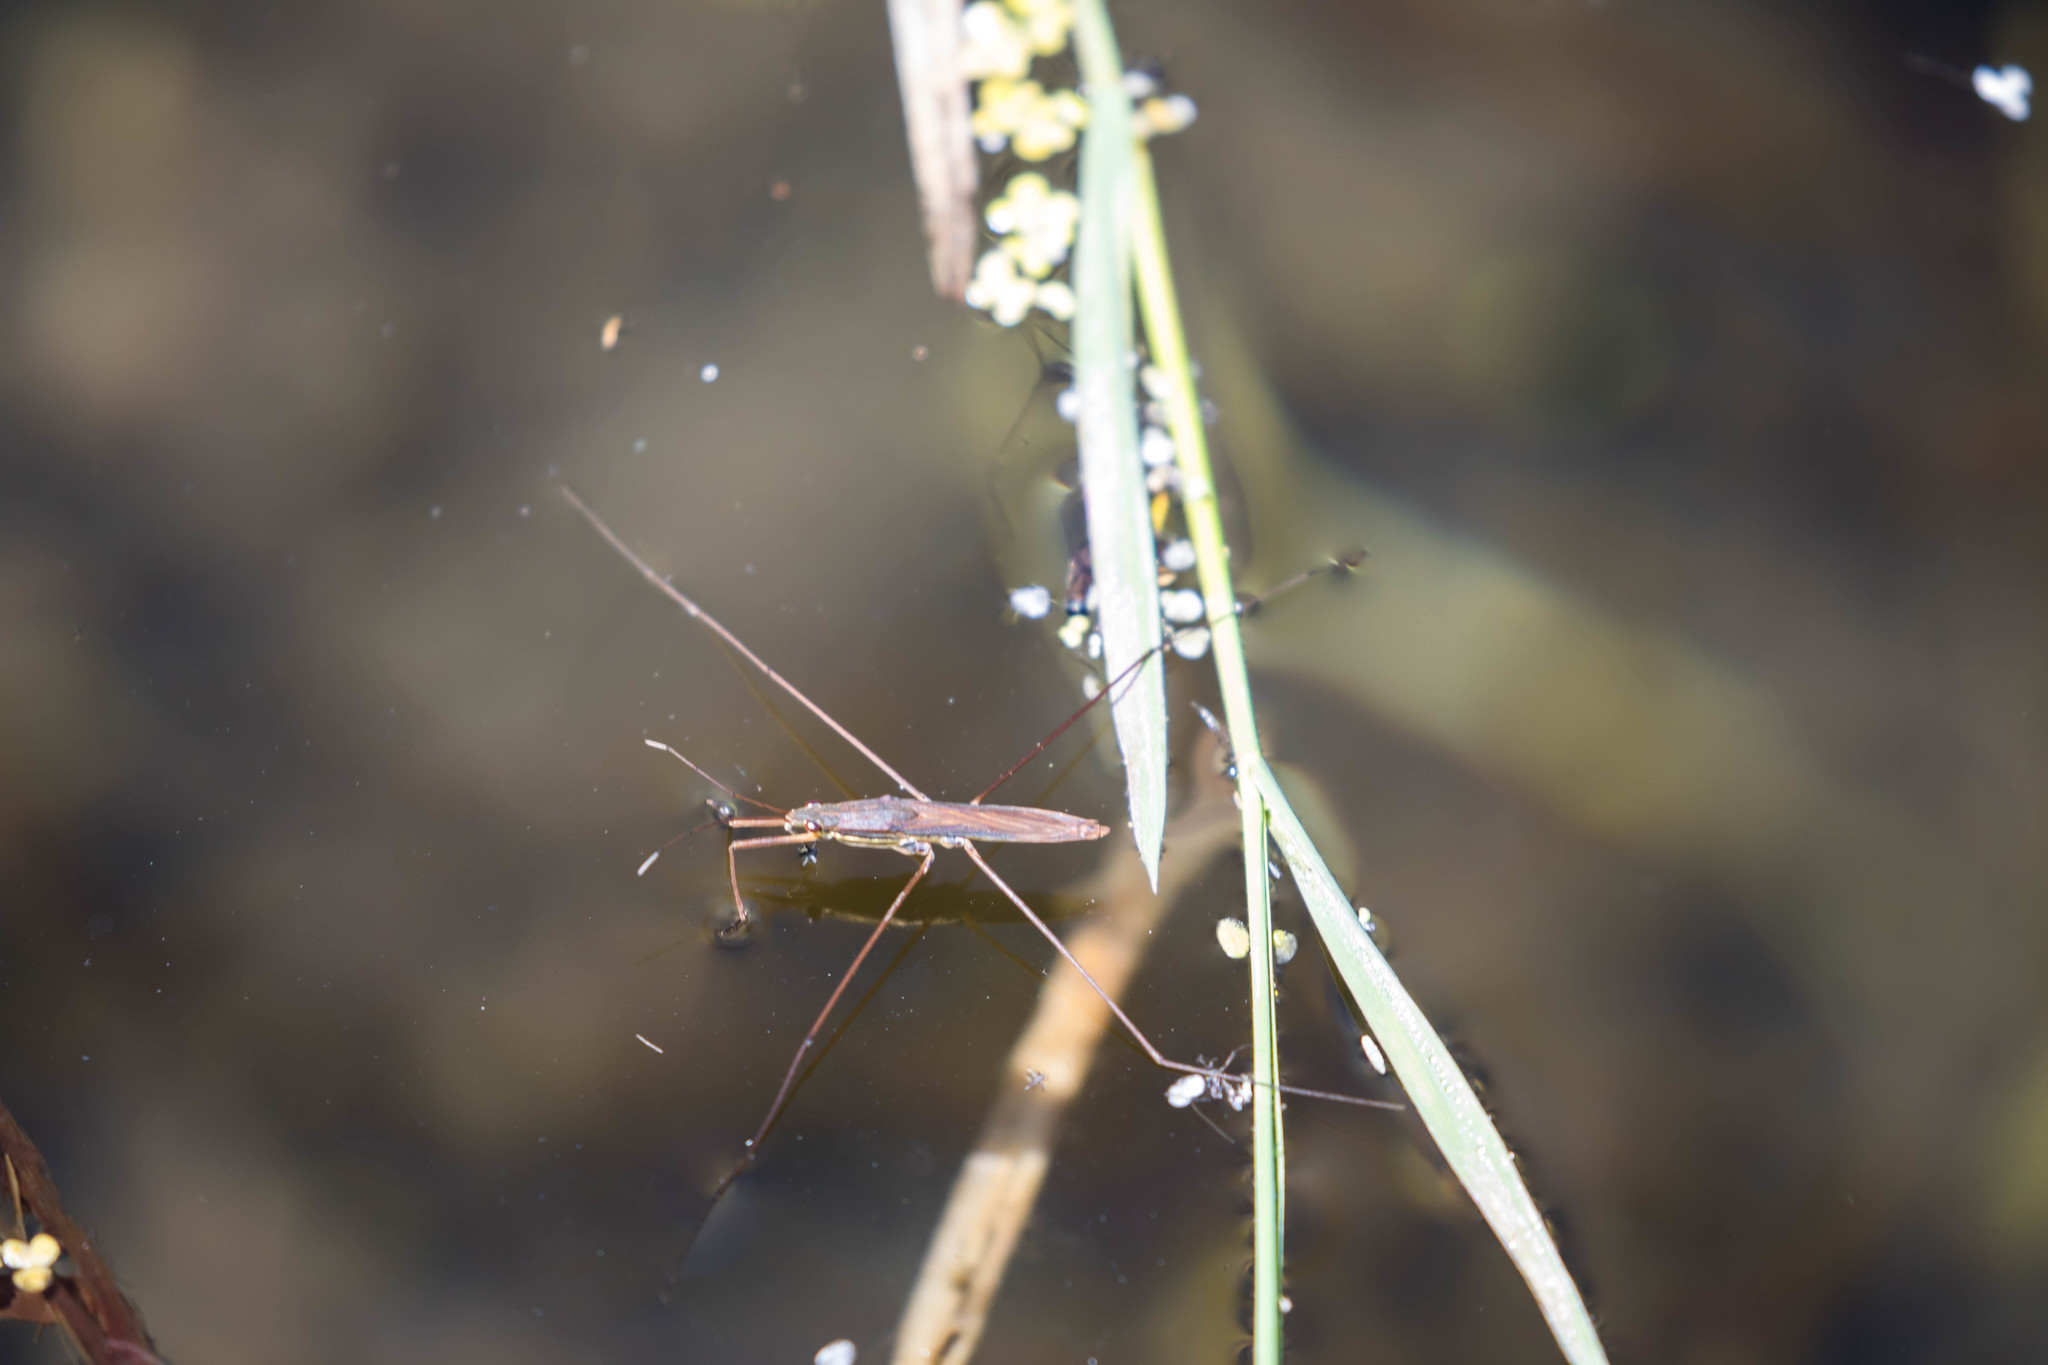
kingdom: Animalia
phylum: Arthropoda
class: Insecta
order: Hemiptera
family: Gerridae
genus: Limnoporus
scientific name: Limnoporus notabilis
